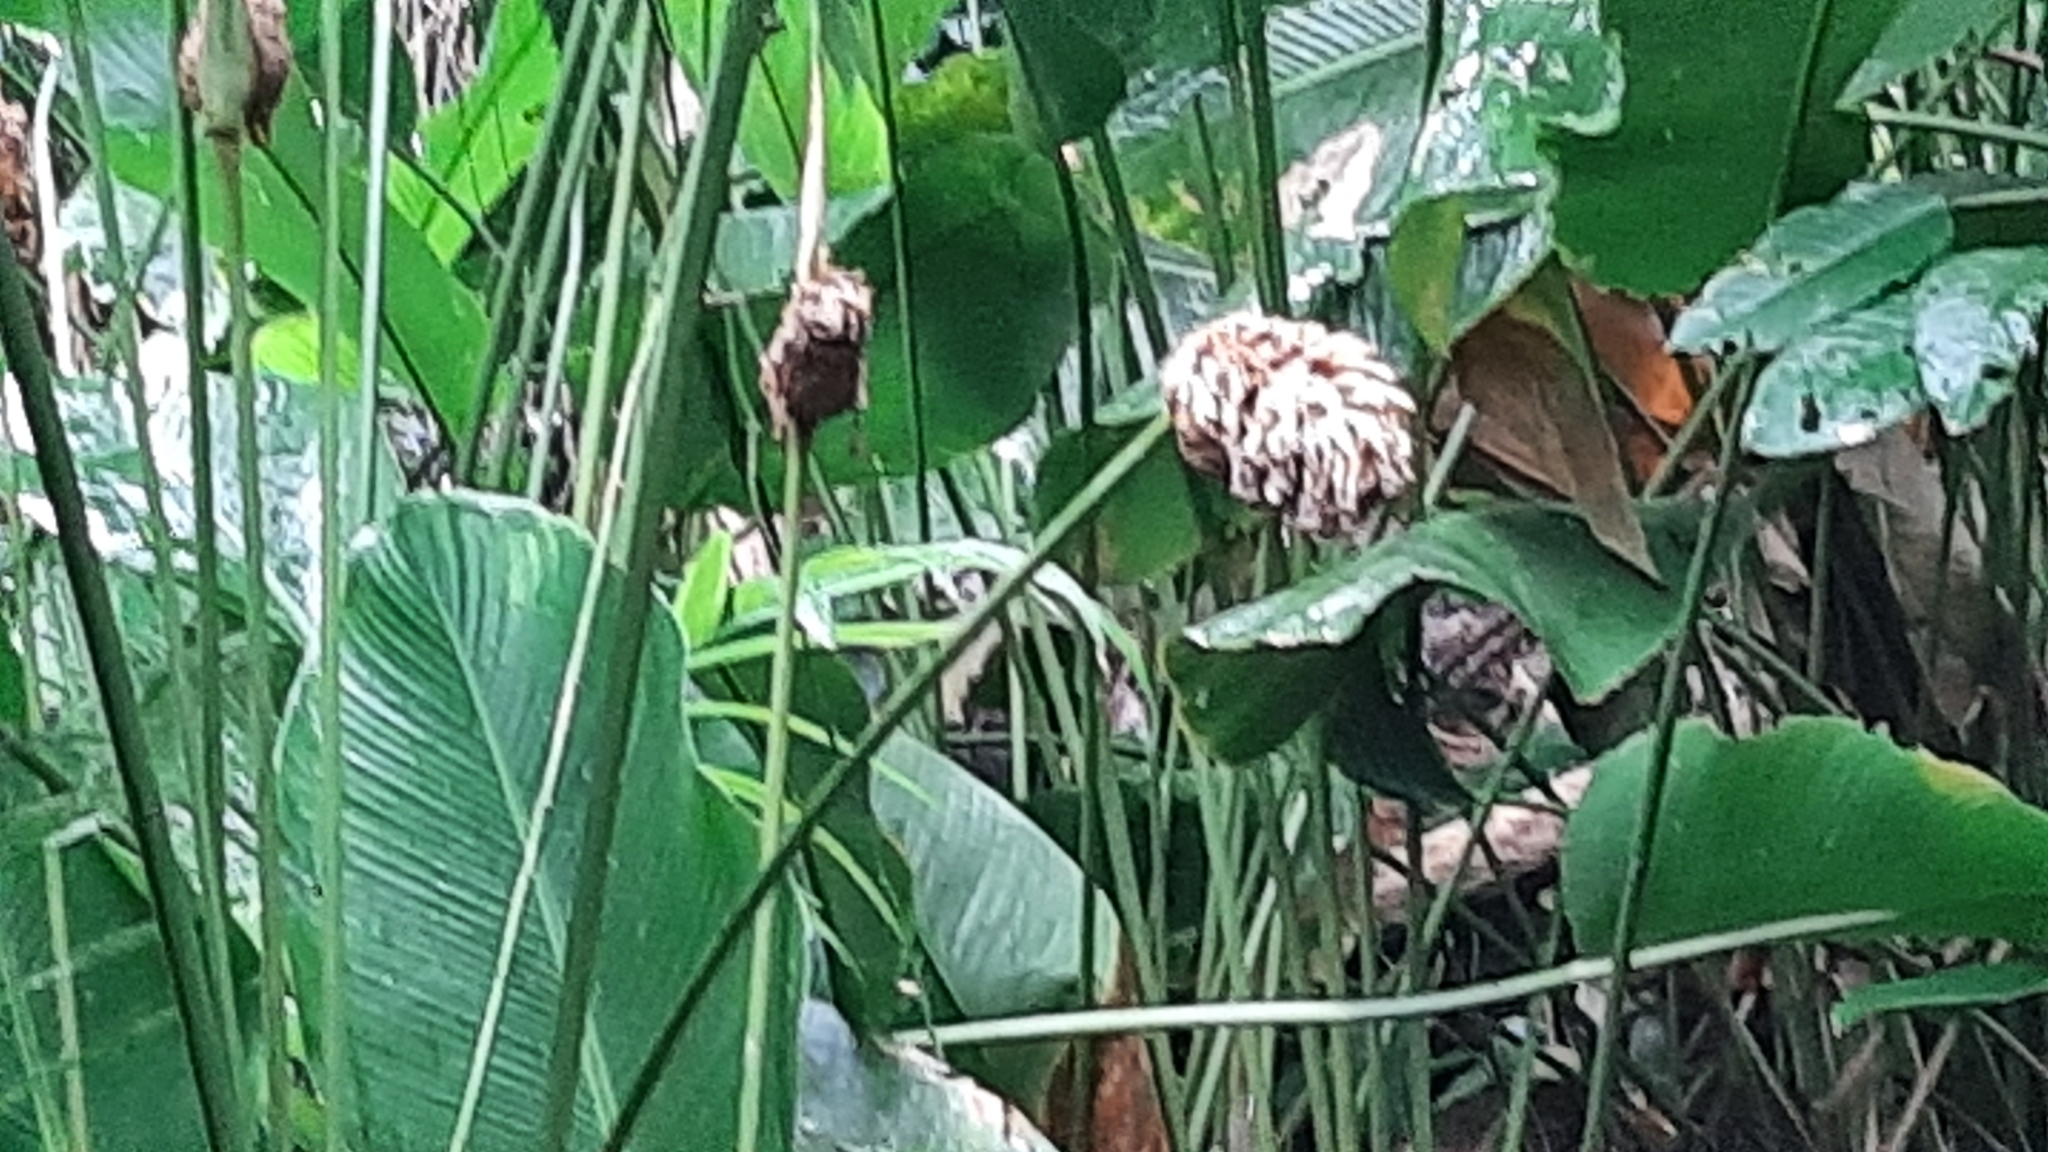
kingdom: Plantae
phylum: Tracheophyta
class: Liliopsida
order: Zingiberales
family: Marantaceae
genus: Goeppertia
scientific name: Goeppertia inocephala
